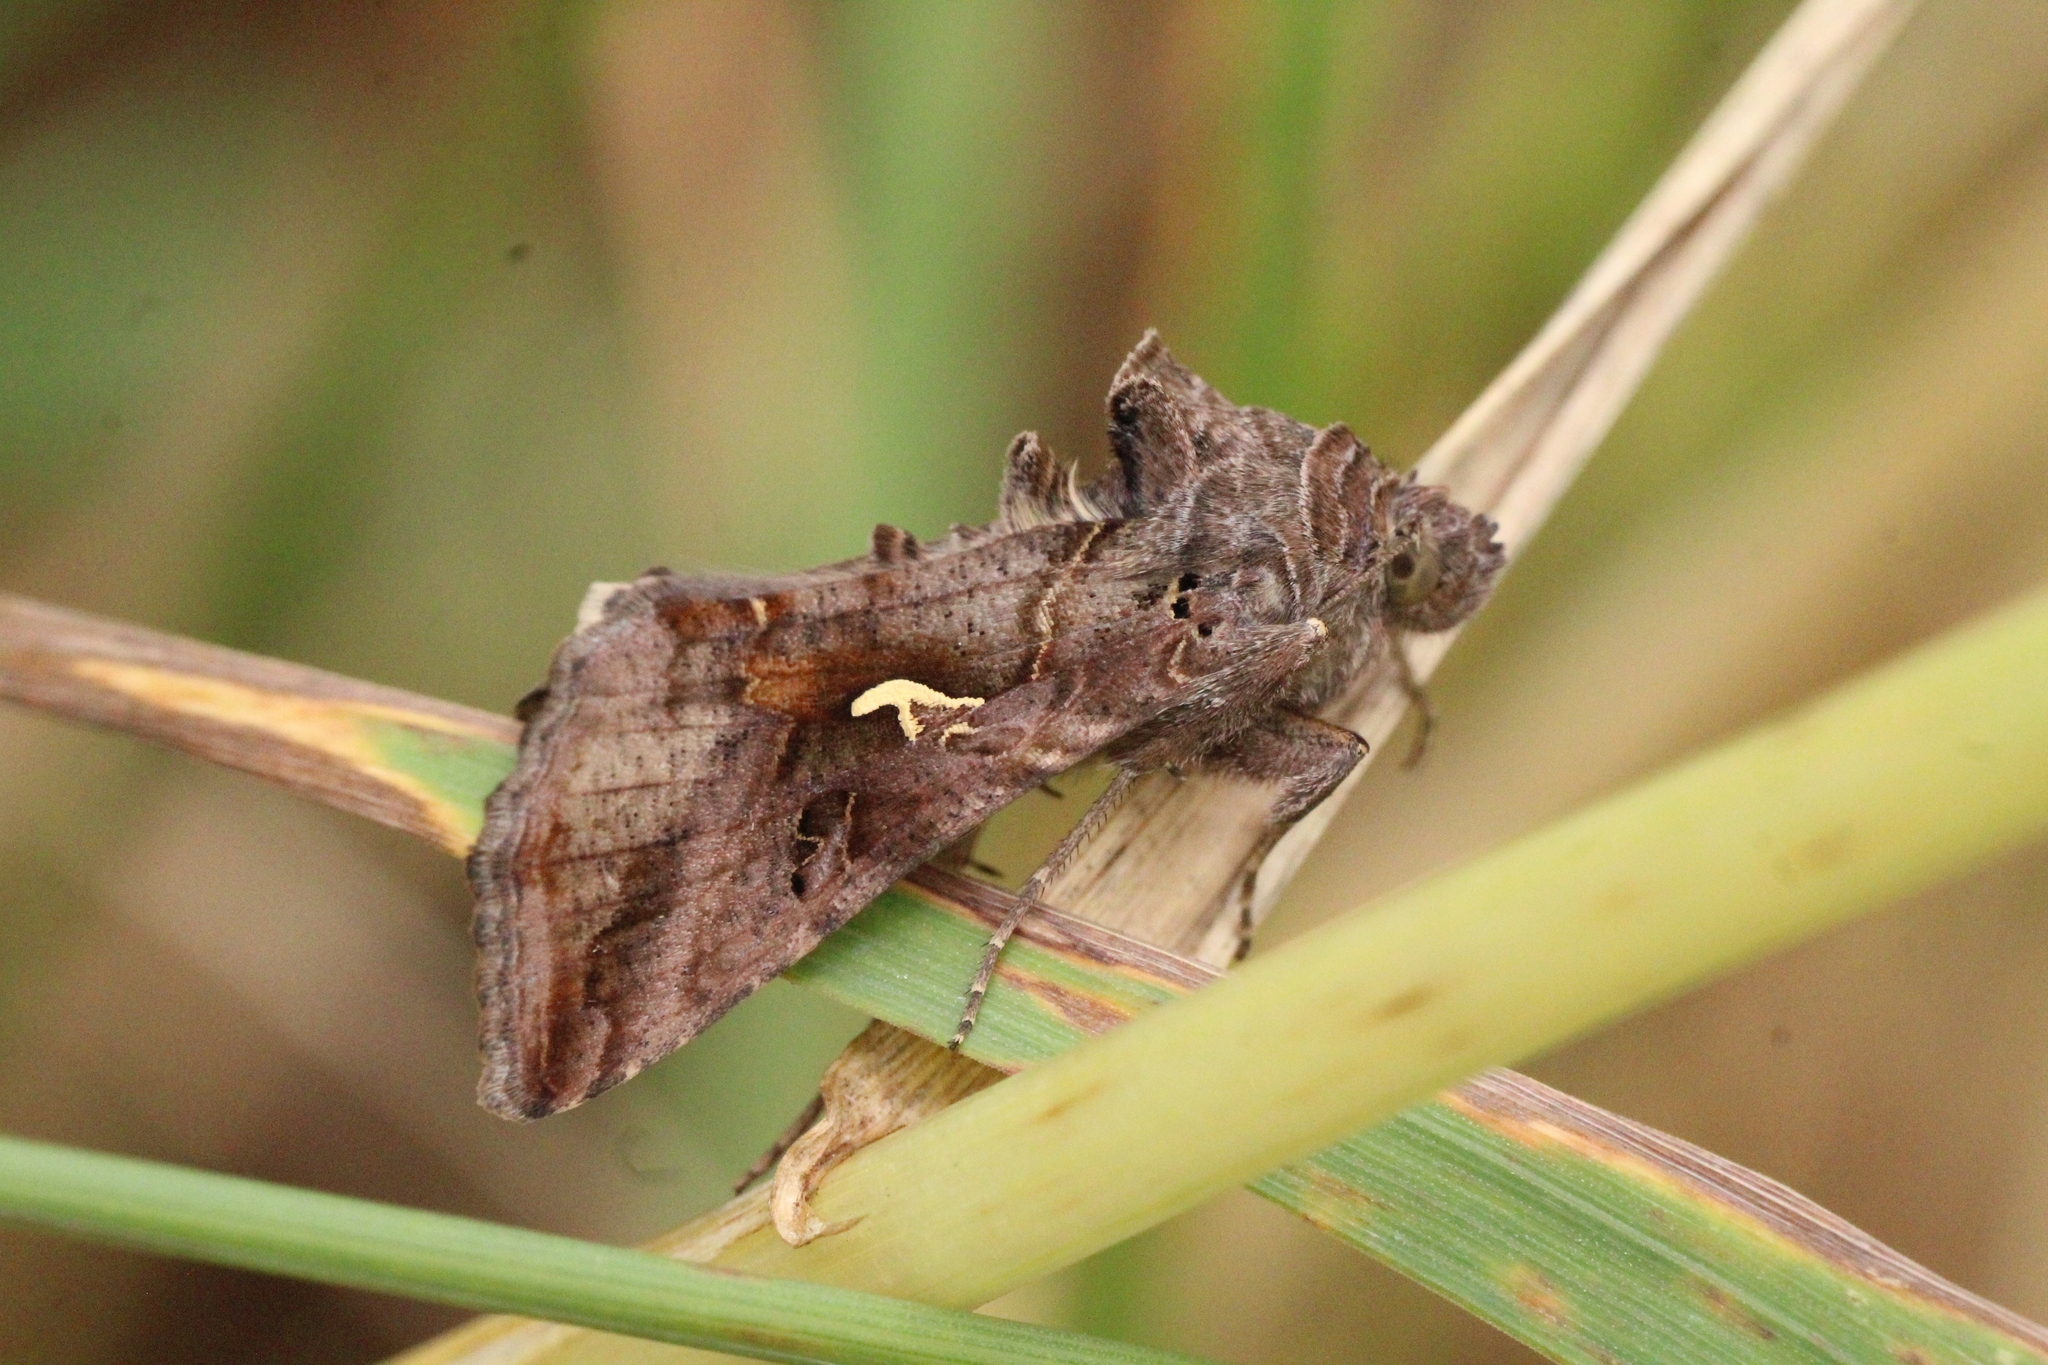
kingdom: Animalia
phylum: Arthropoda
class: Insecta
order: Lepidoptera
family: Noctuidae
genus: Autographa
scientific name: Autographa gamma
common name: Silver y
